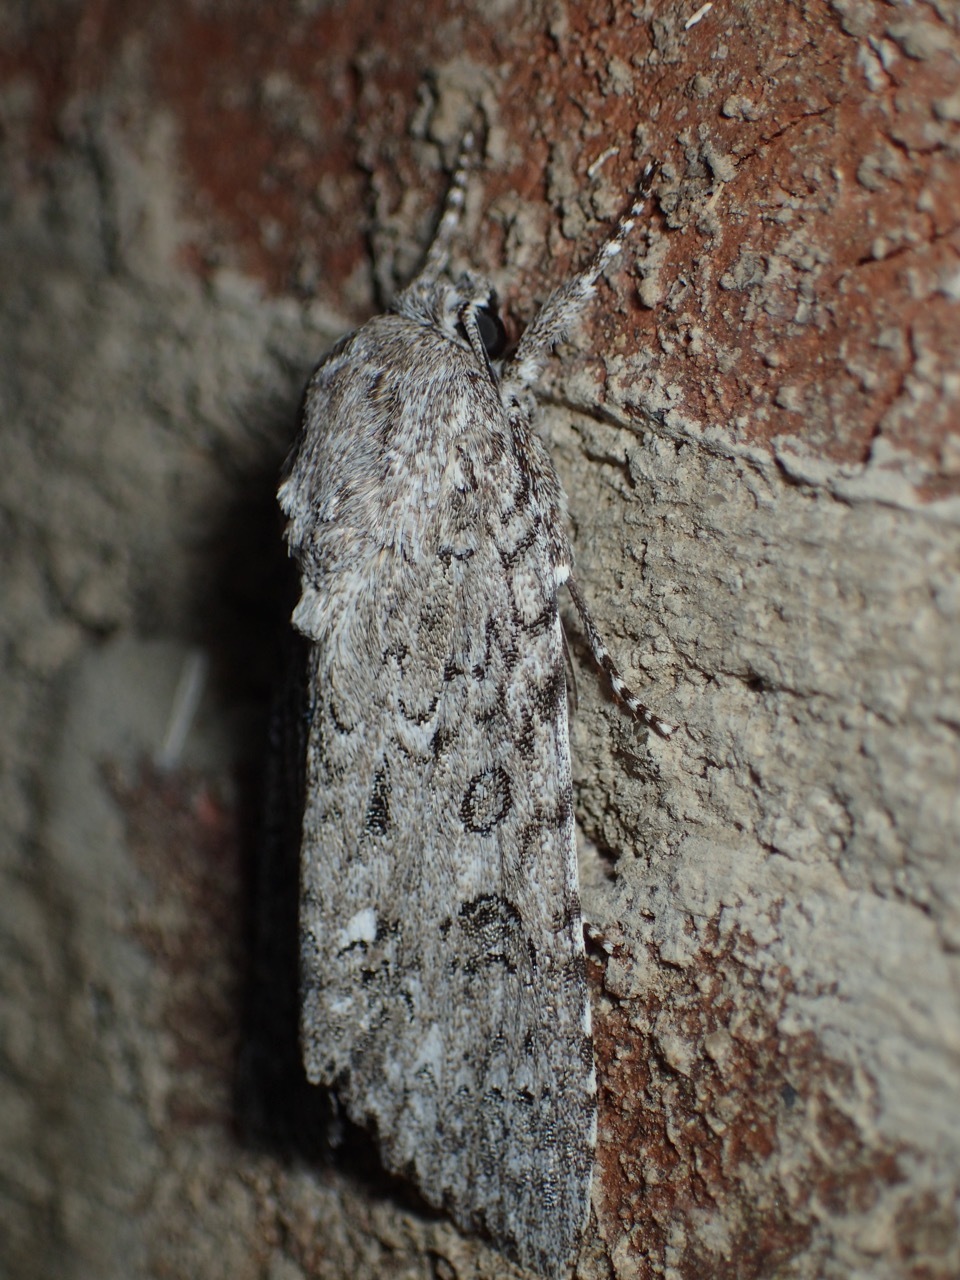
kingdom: Animalia
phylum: Arthropoda
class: Insecta
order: Lepidoptera
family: Noctuidae
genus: Acronicta
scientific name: Acronicta impleta
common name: Powdered dagger
